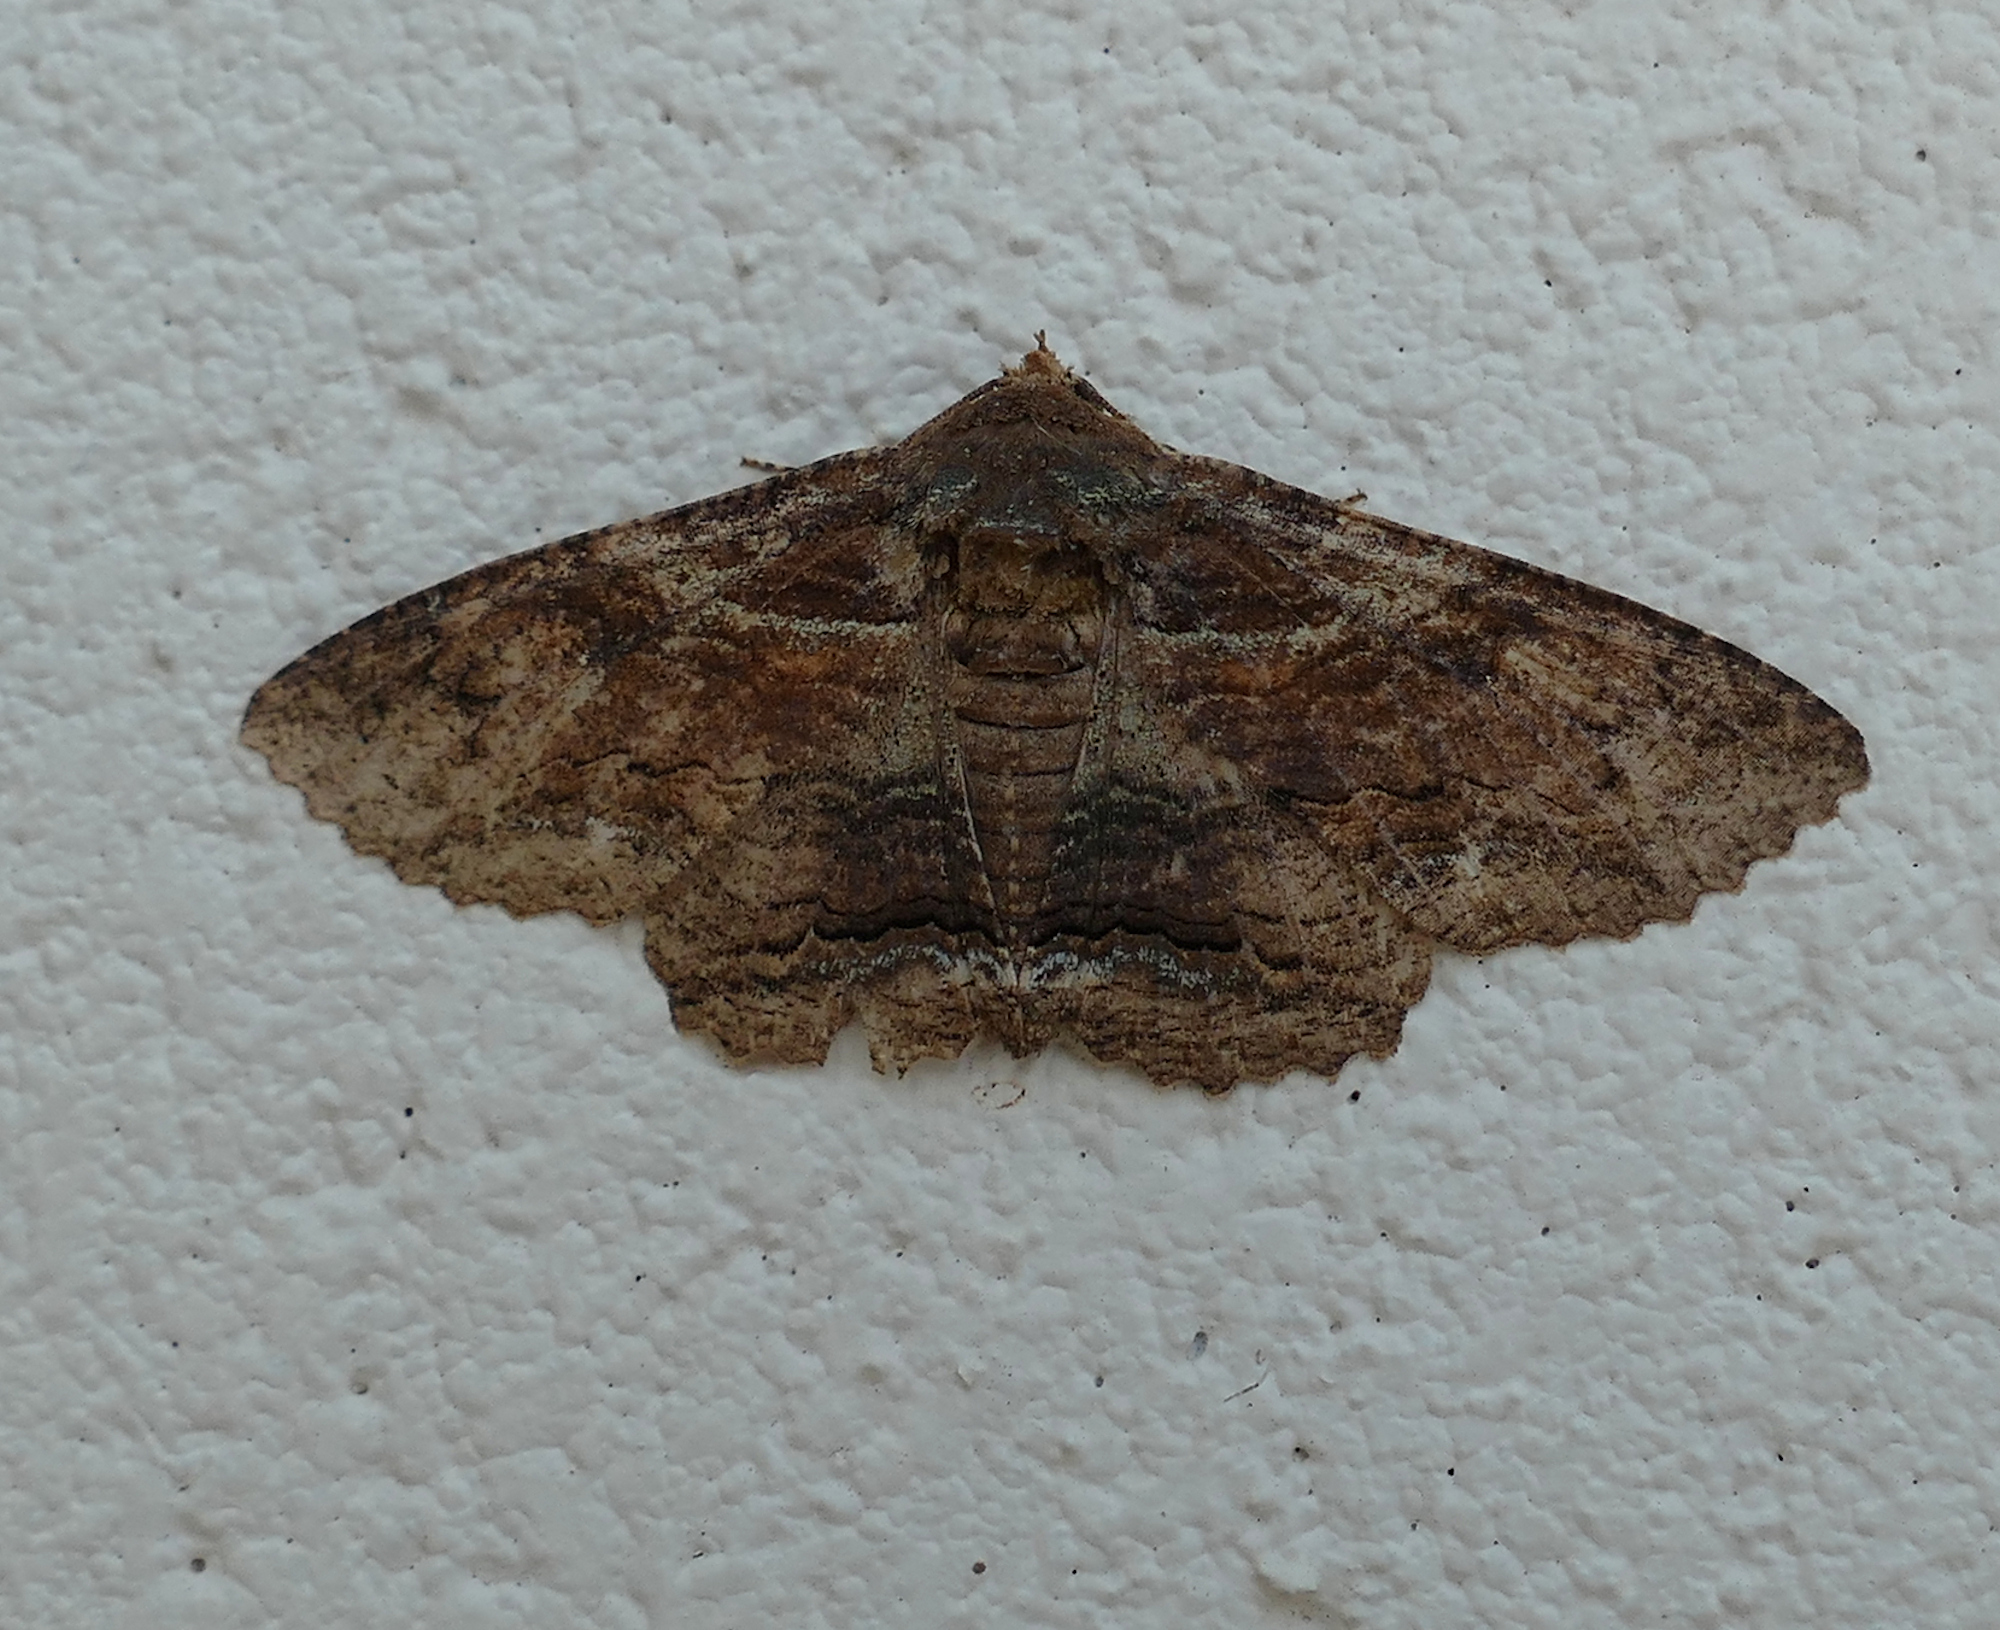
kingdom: Animalia
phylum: Arthropoda
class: Insecta
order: Lepidoptera
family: Erebidae
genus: Zale
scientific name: Zale lunata
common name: Lunate zale moth
